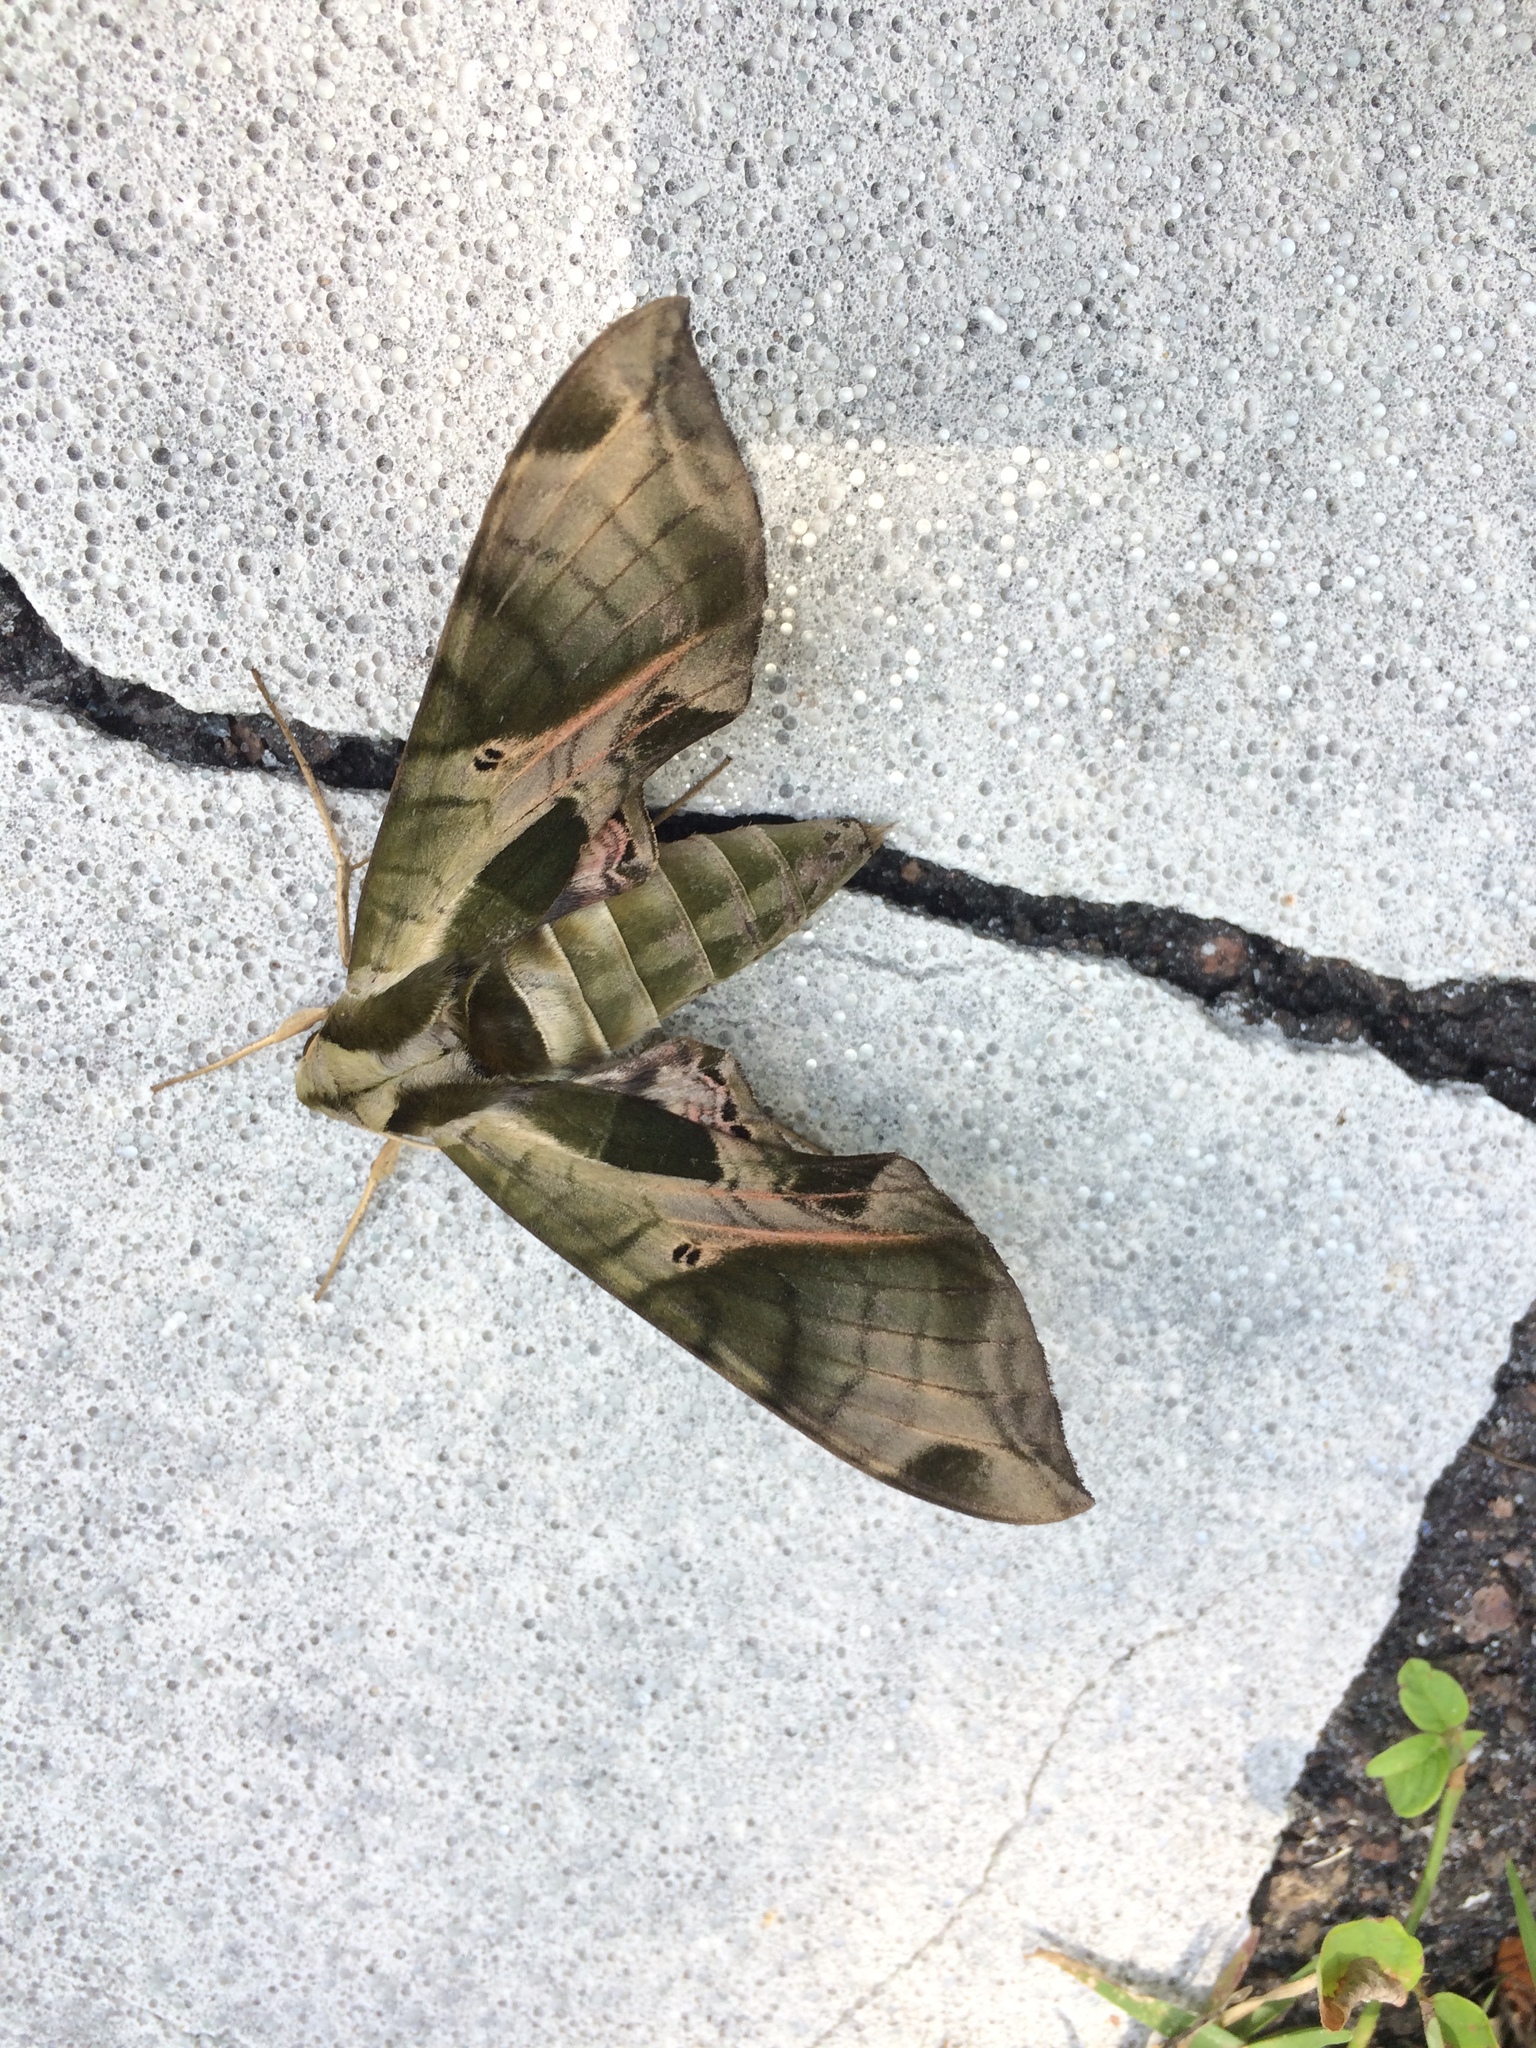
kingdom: Animalia
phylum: Arthropoda
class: Insecta
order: Lepidoptera
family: Sphingidae
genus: Eumorpha
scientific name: Eumorpha pandorus
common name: Pandora sphinx
